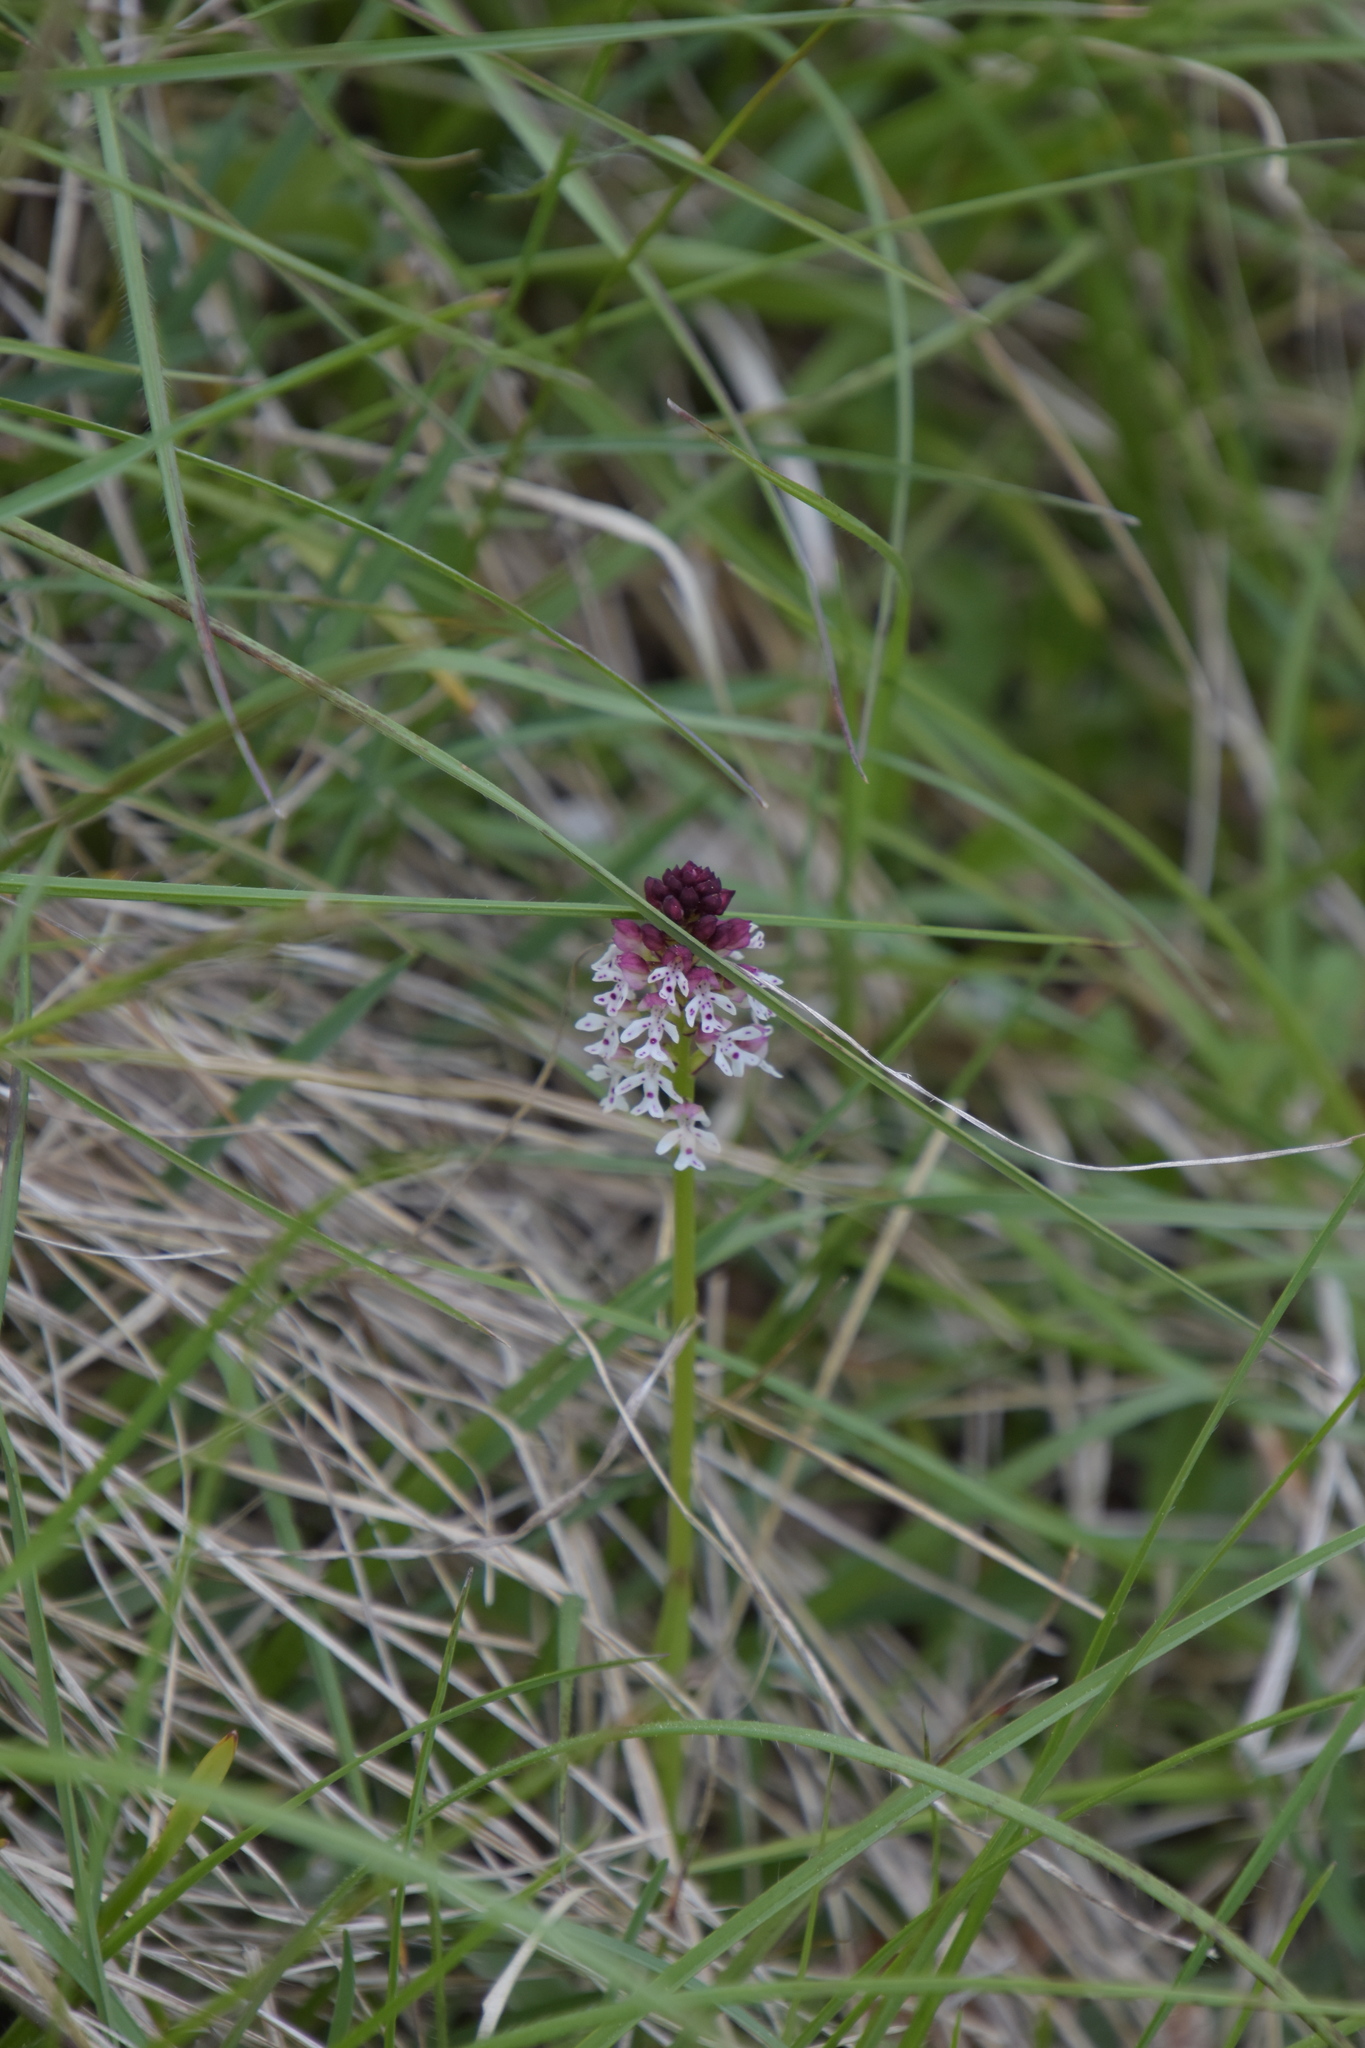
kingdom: Plantae
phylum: Tracheophyta
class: Liliopsida
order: Asparagales
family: Orchidaceae
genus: Neotinea
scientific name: Neotinea ustulata
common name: Burnt orchid
